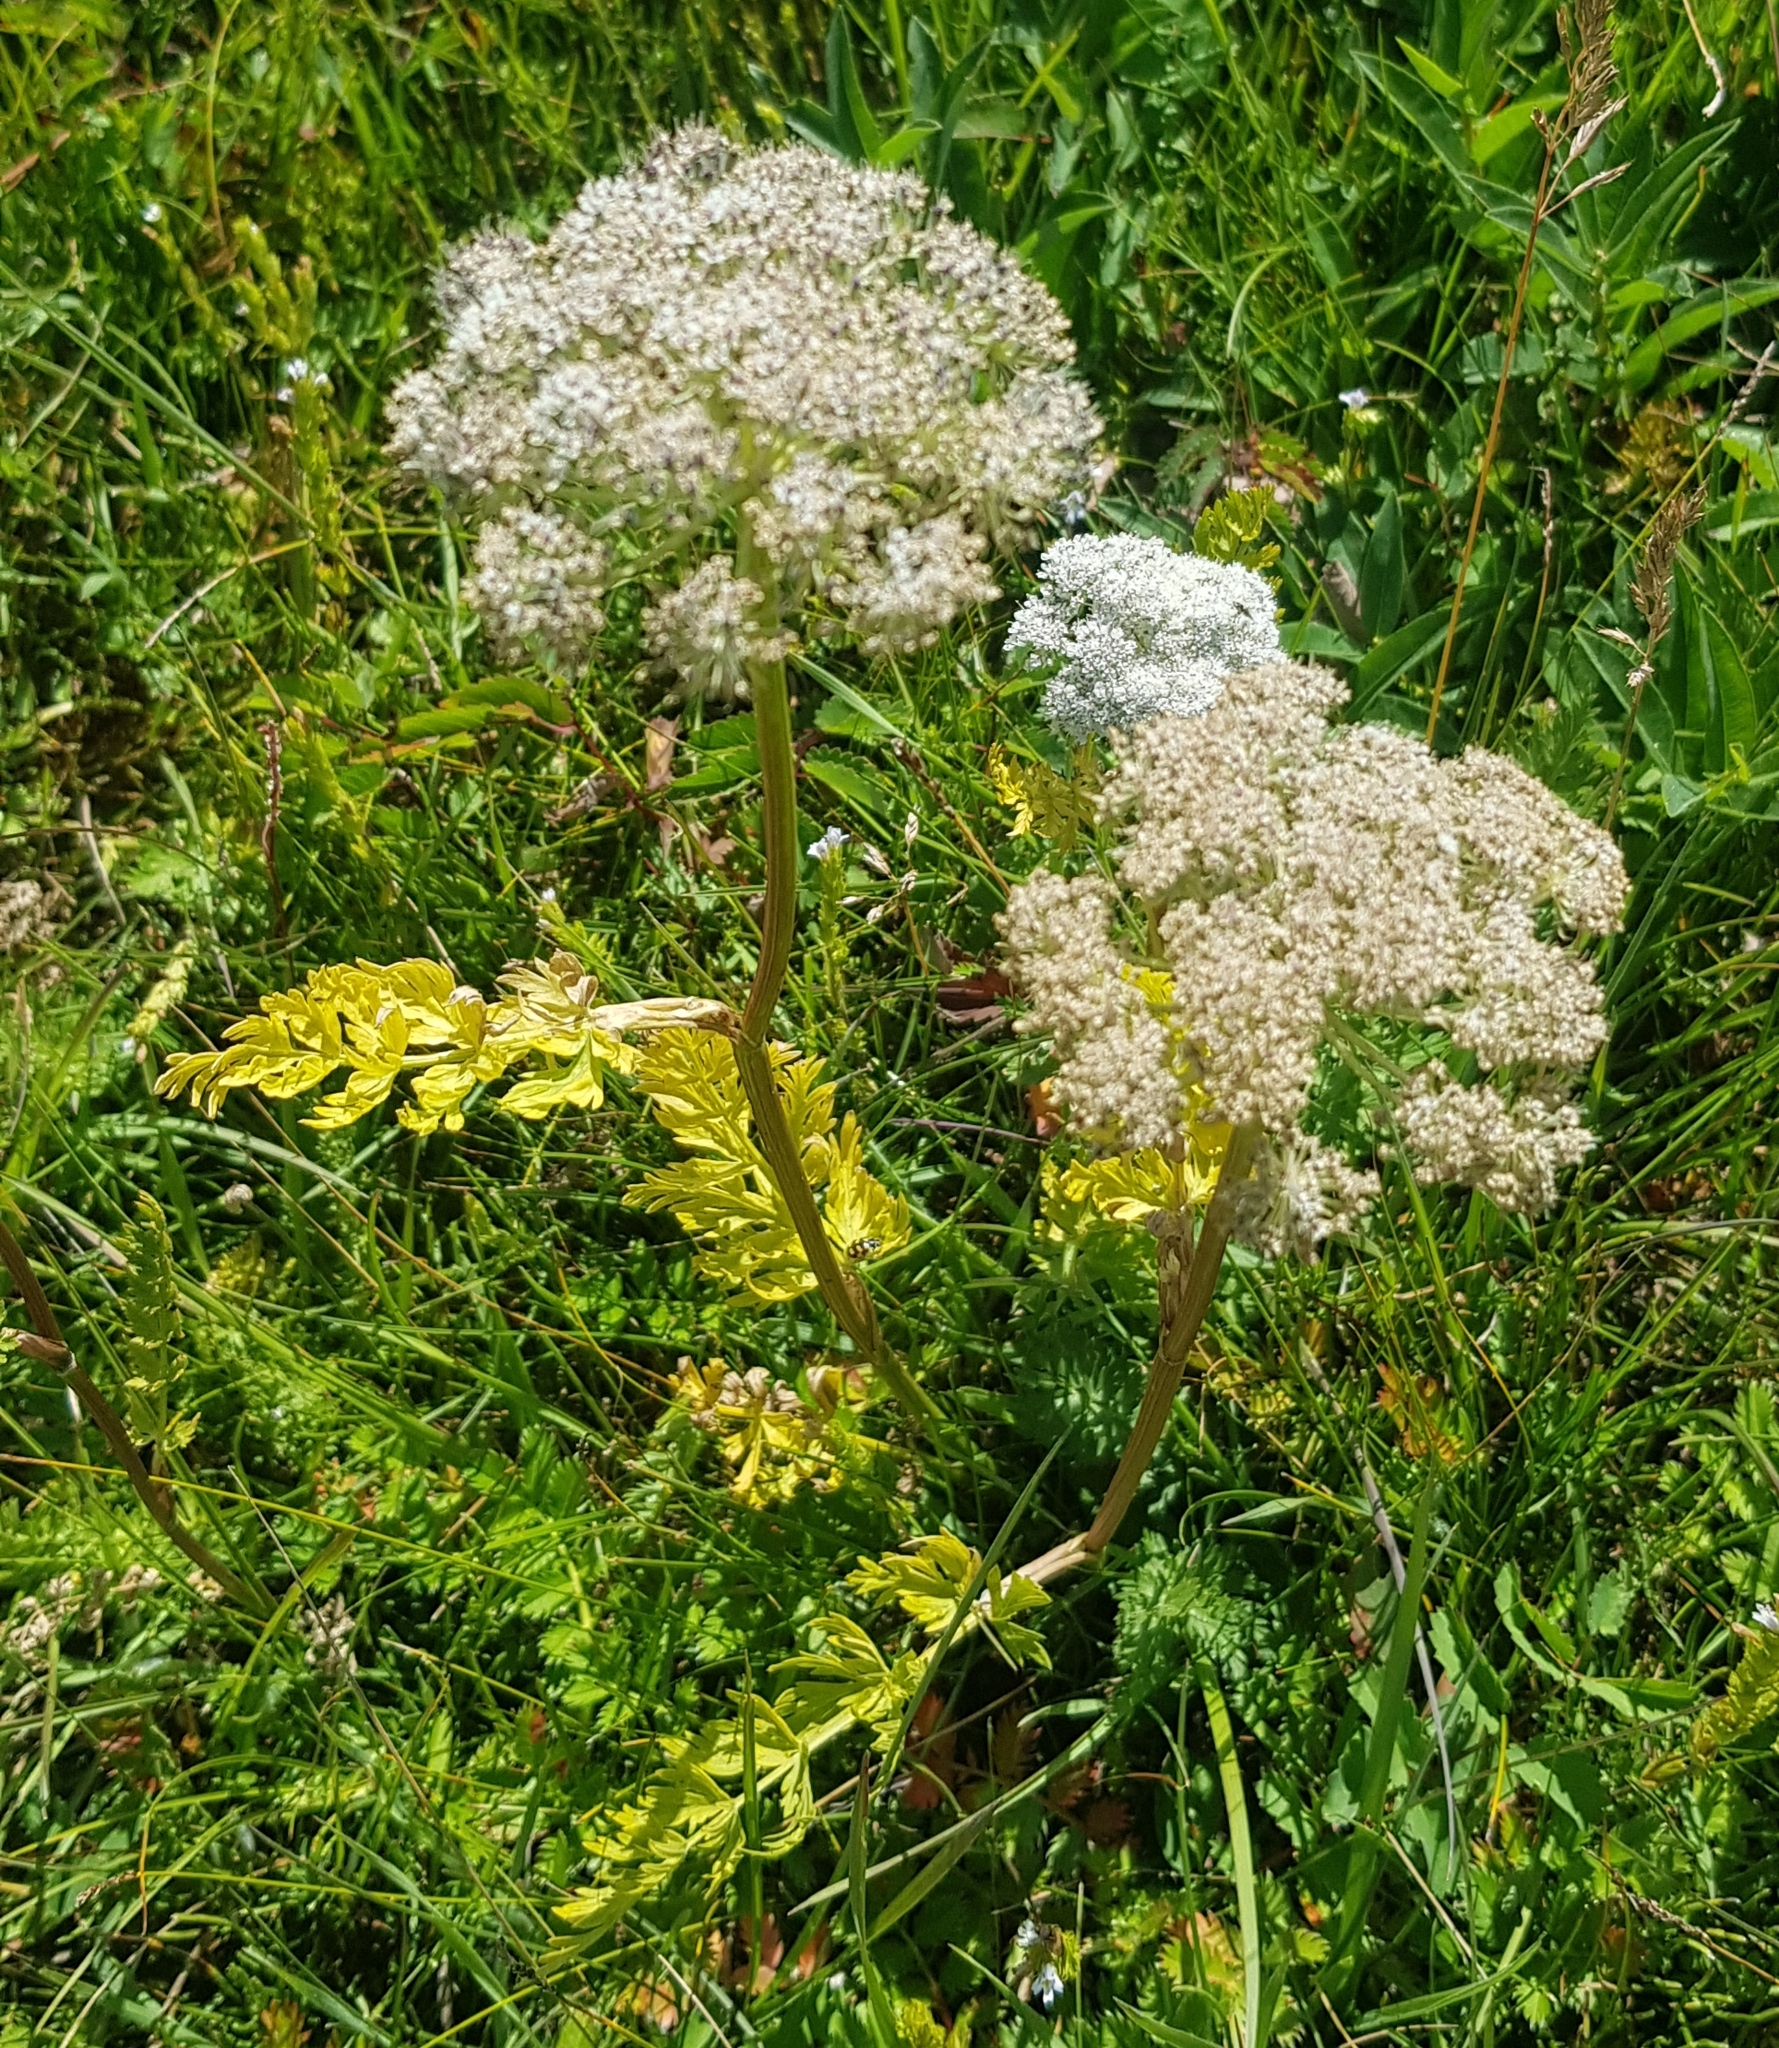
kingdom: Plantae
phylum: Tracheophyta
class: Magnoliopsida
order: Apiales
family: Apiaceae
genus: Seseli
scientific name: Seseli condensatum
